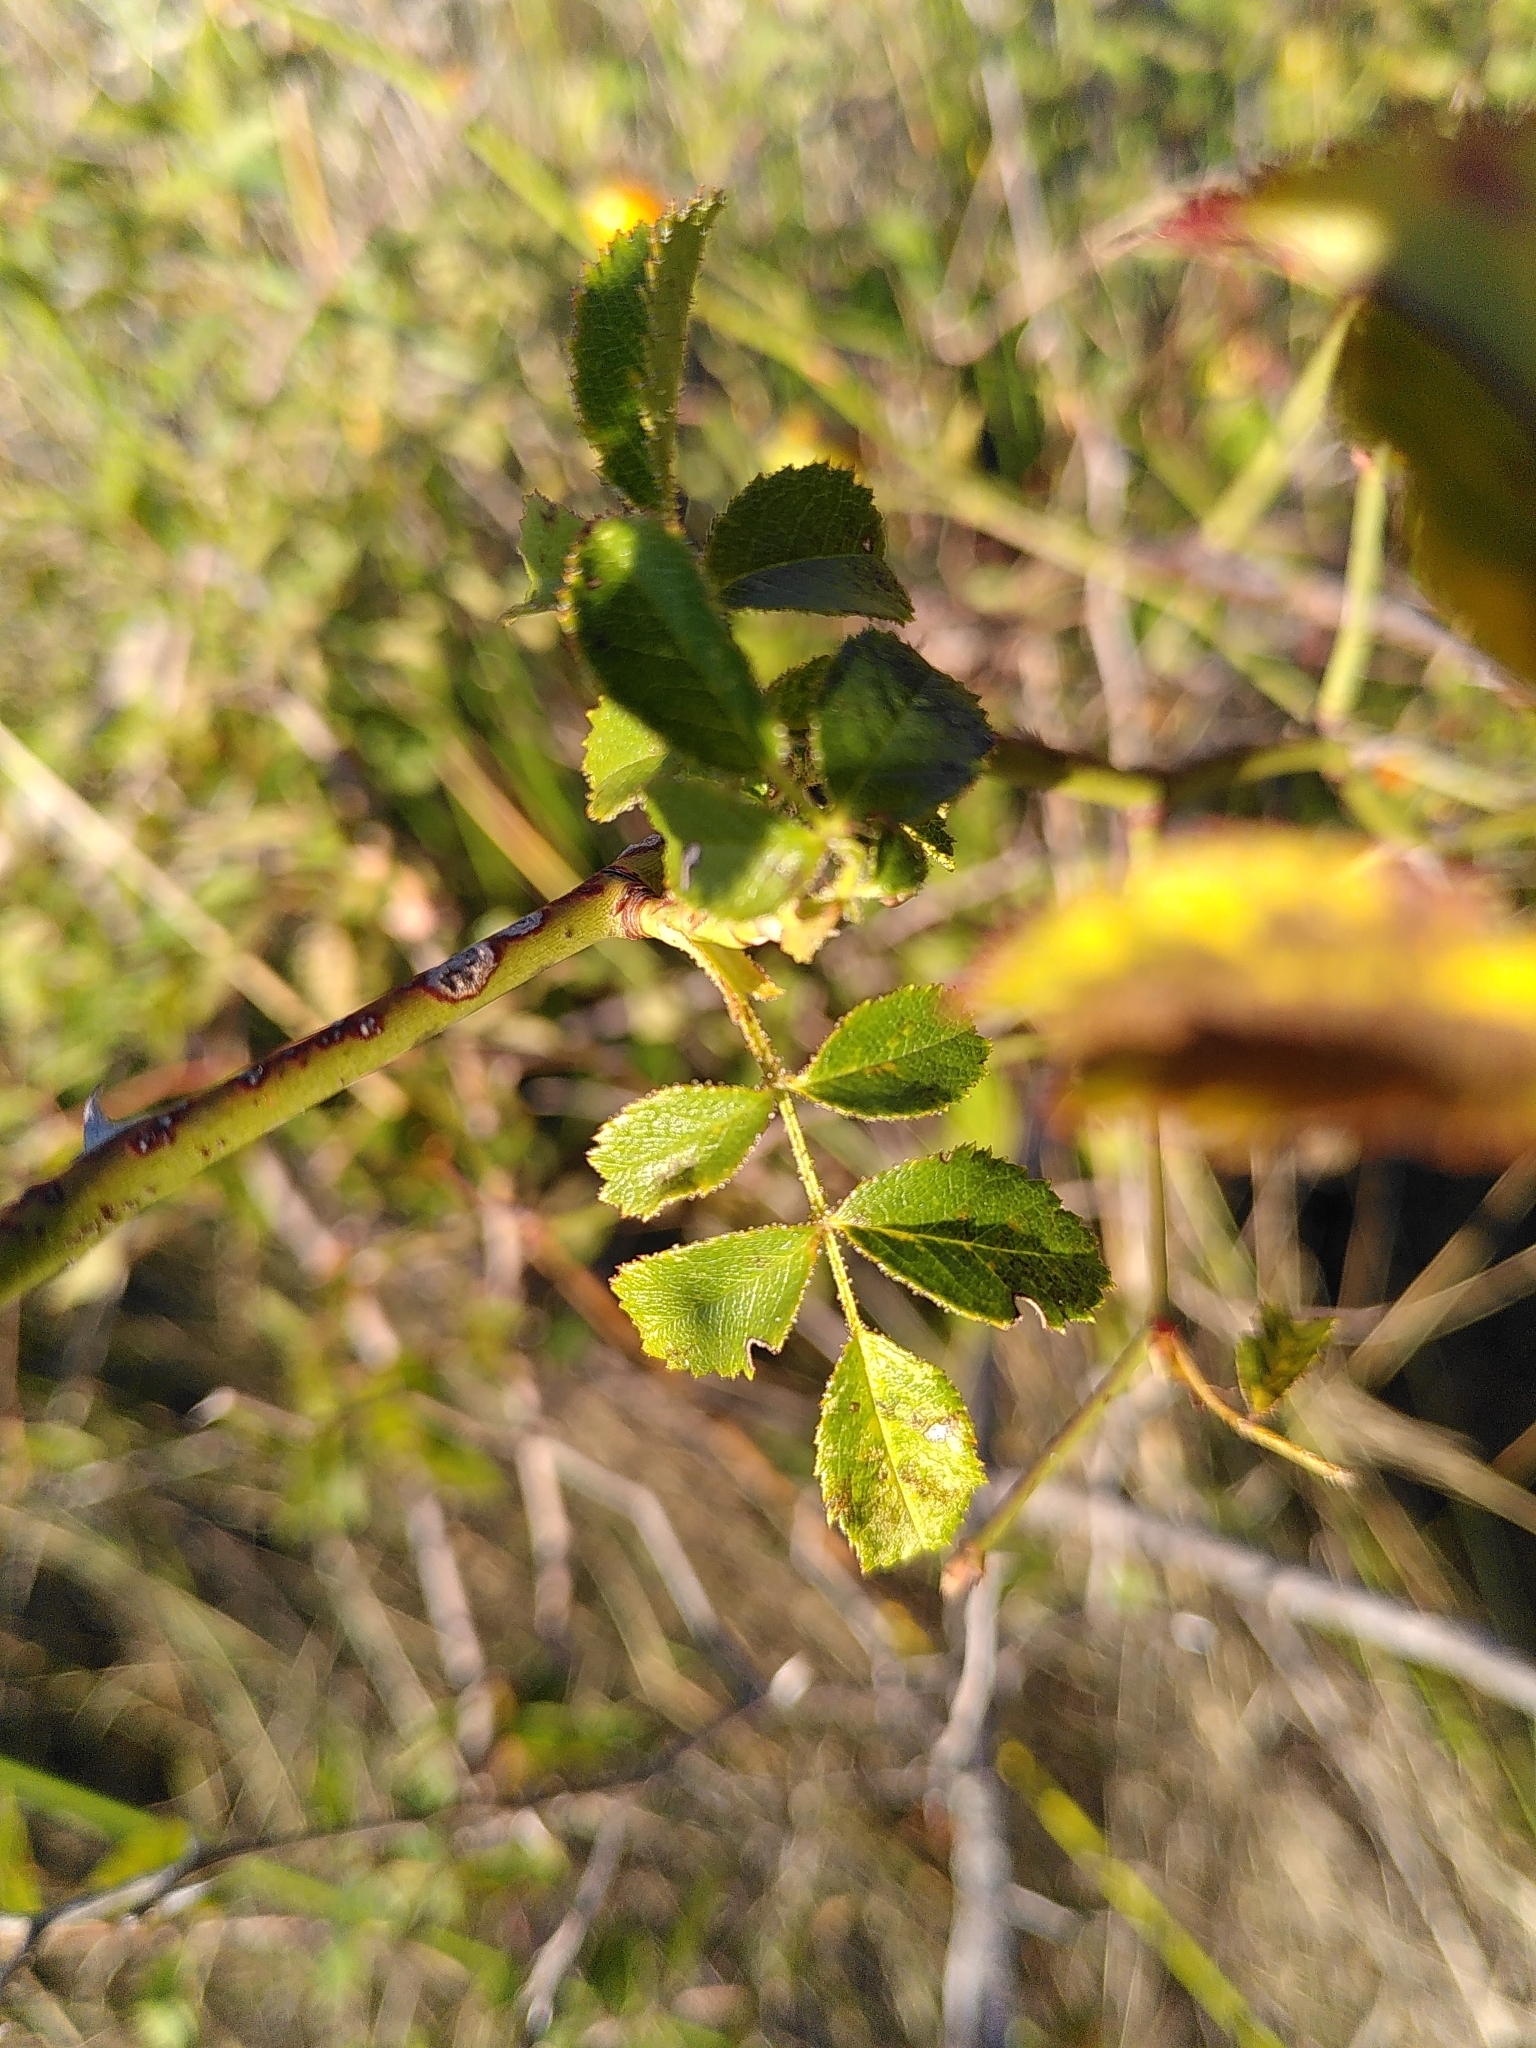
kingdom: Plantae
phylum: Tracheophyta
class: Magnoliopsida
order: Rosales
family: Rosaceae
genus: Rosa
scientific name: Rosa micrantha
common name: Small-flowered sweet-briar
